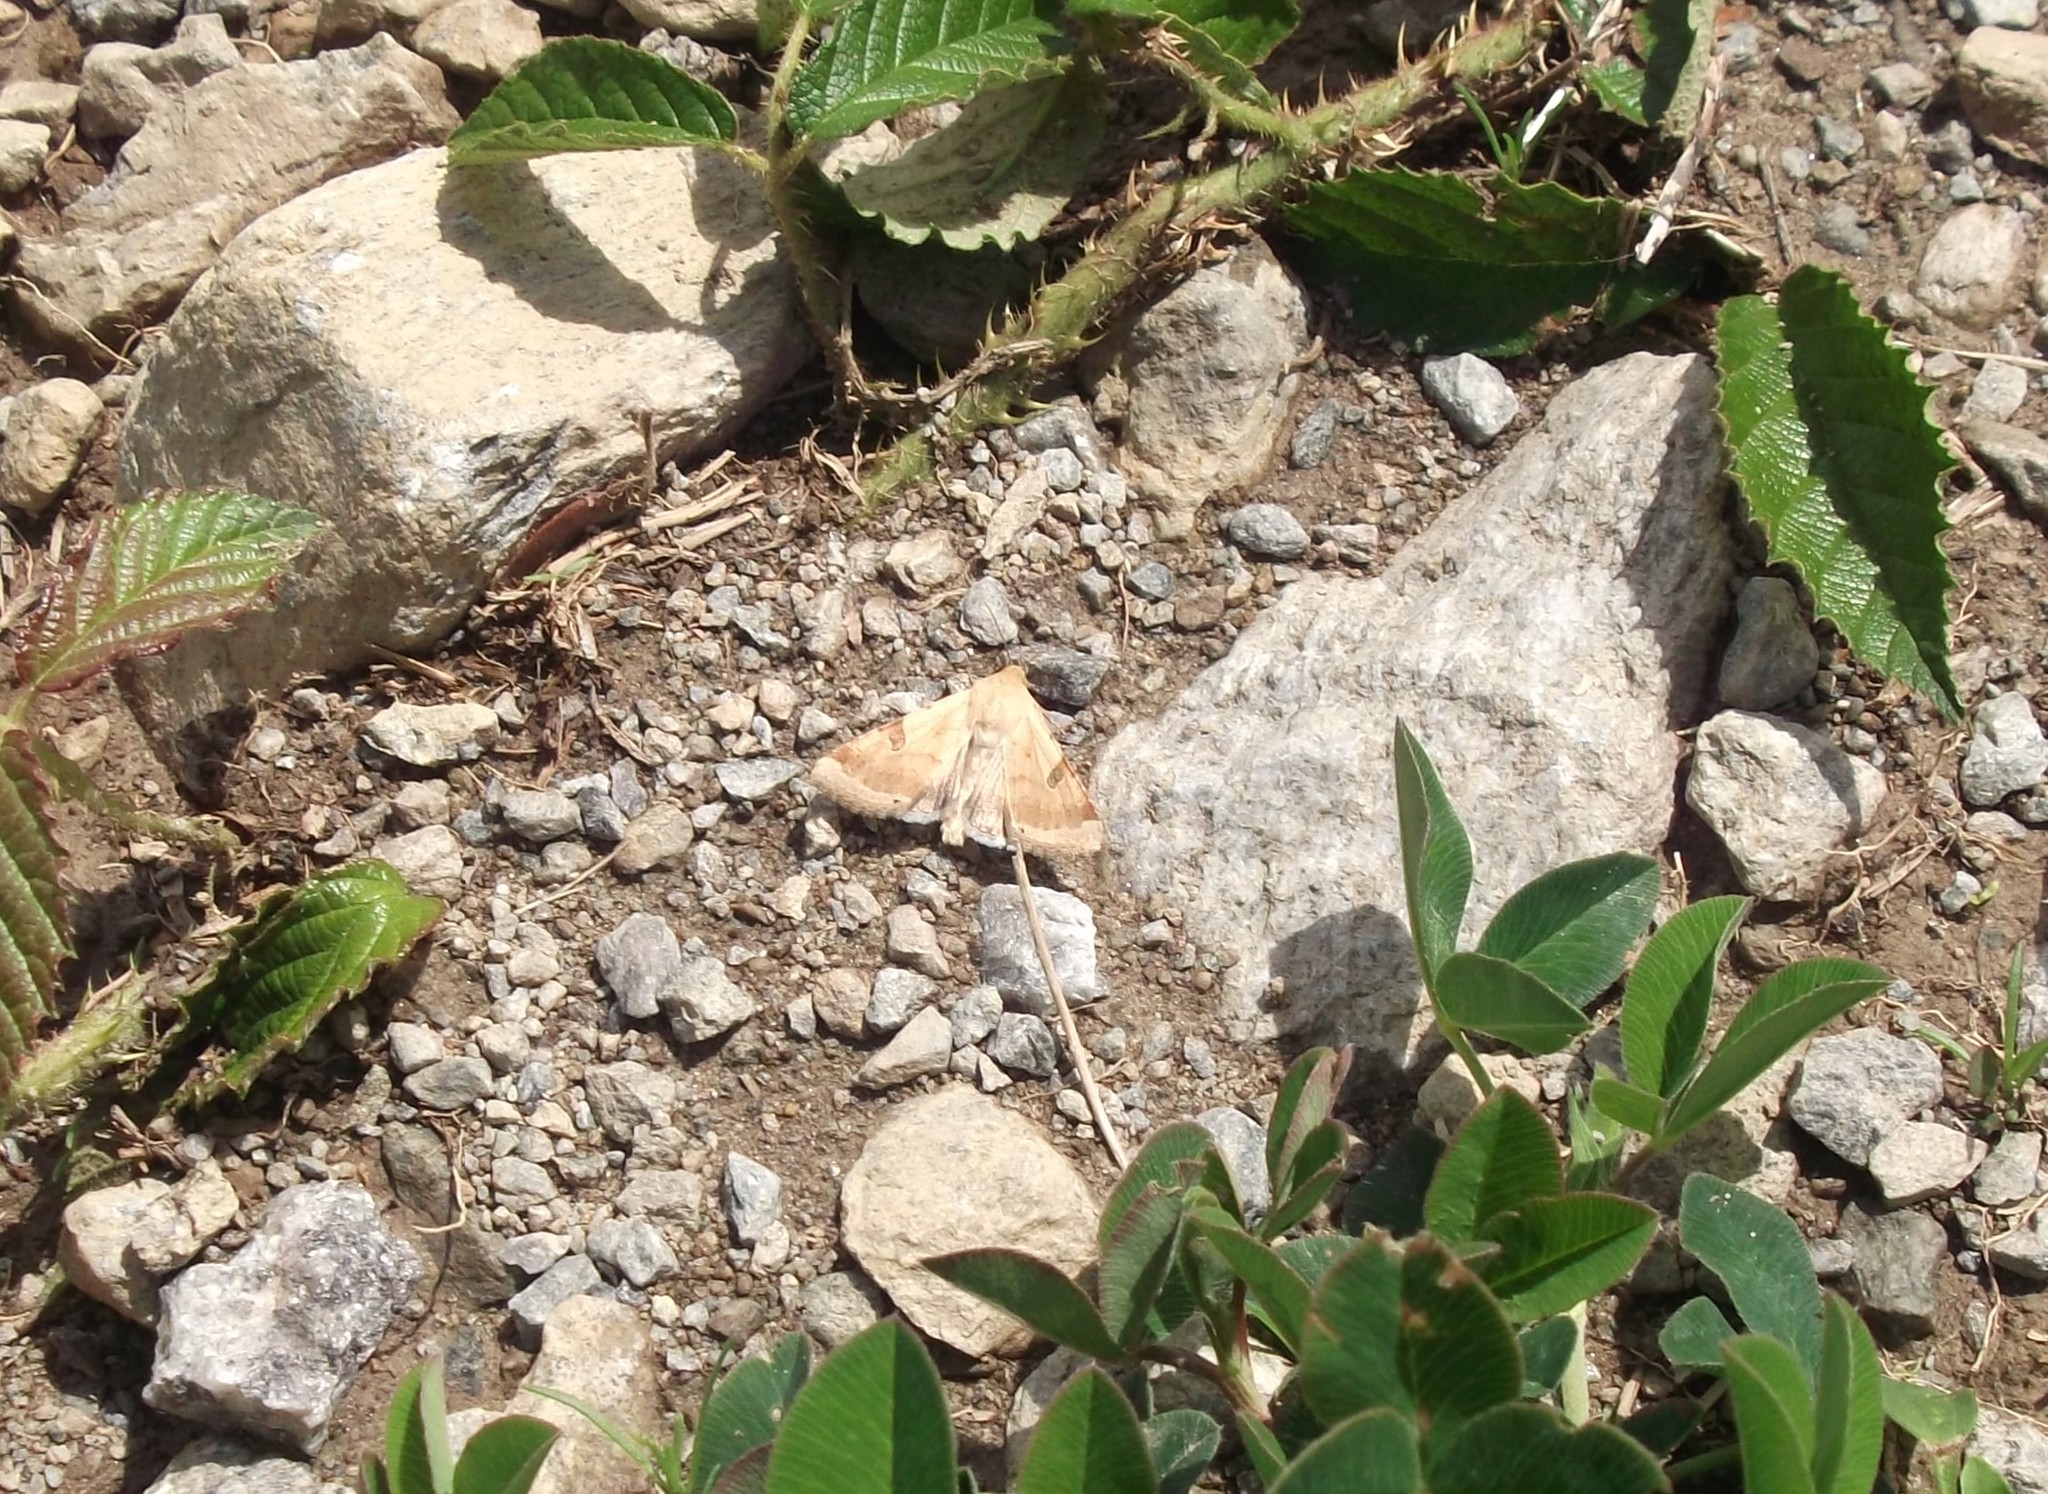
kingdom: Animalia
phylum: Arthropoda
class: Insecta
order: Lepidoptera
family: Noctuidae
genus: Heliothis
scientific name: Heliothis peltigera
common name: Bordered straw
